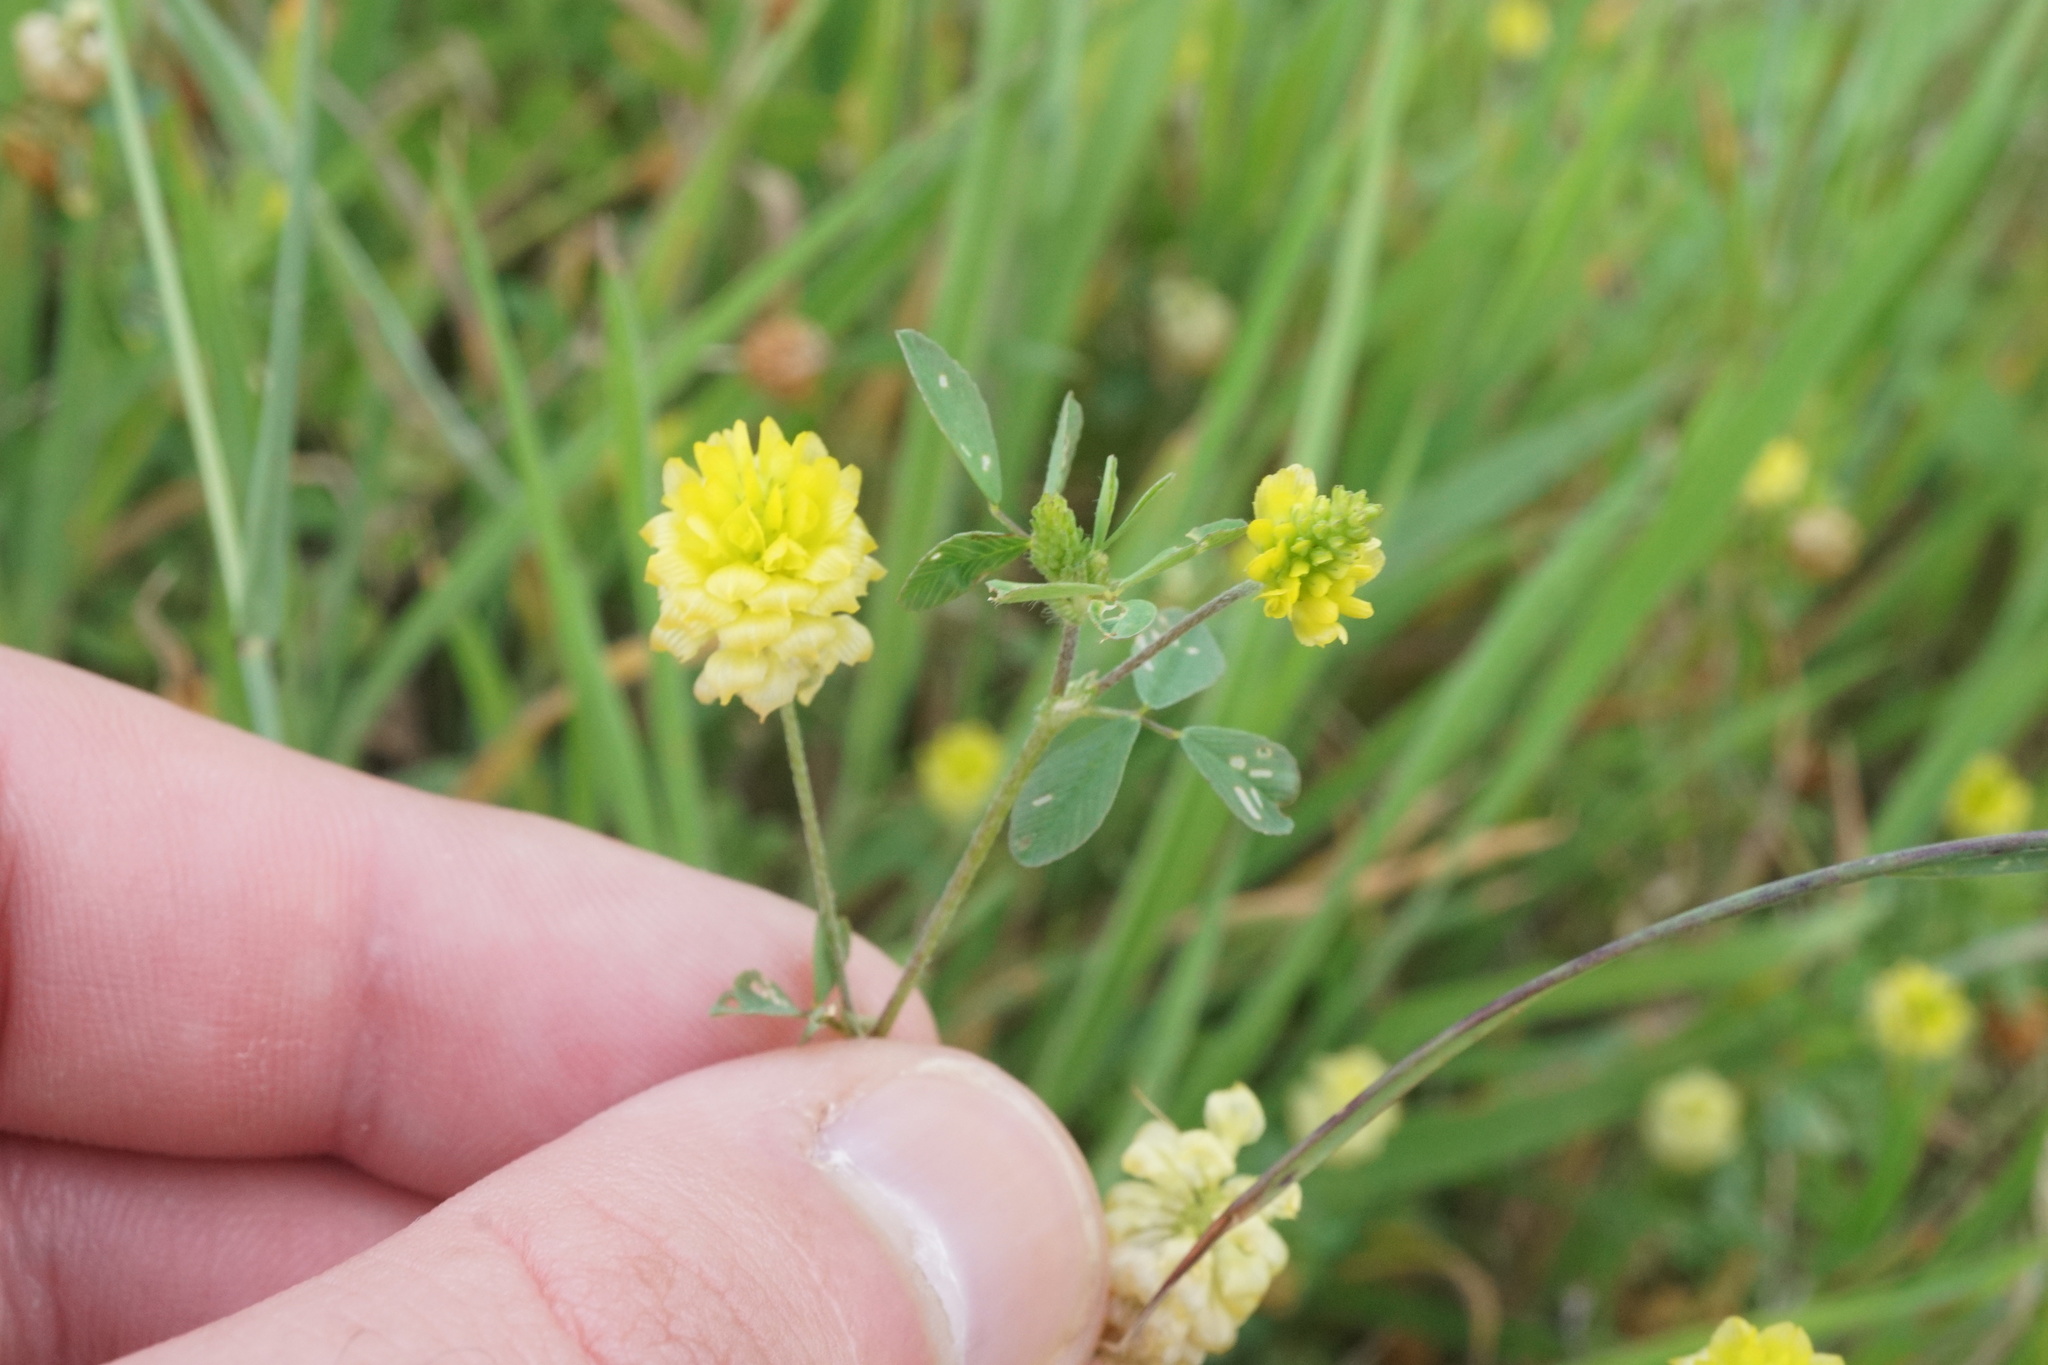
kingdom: Plantae
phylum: Tracheophyta
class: Magnoliopsida
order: Fabales
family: Fabaceae
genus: Trifolium
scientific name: Trifolium campestre
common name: Field clover
